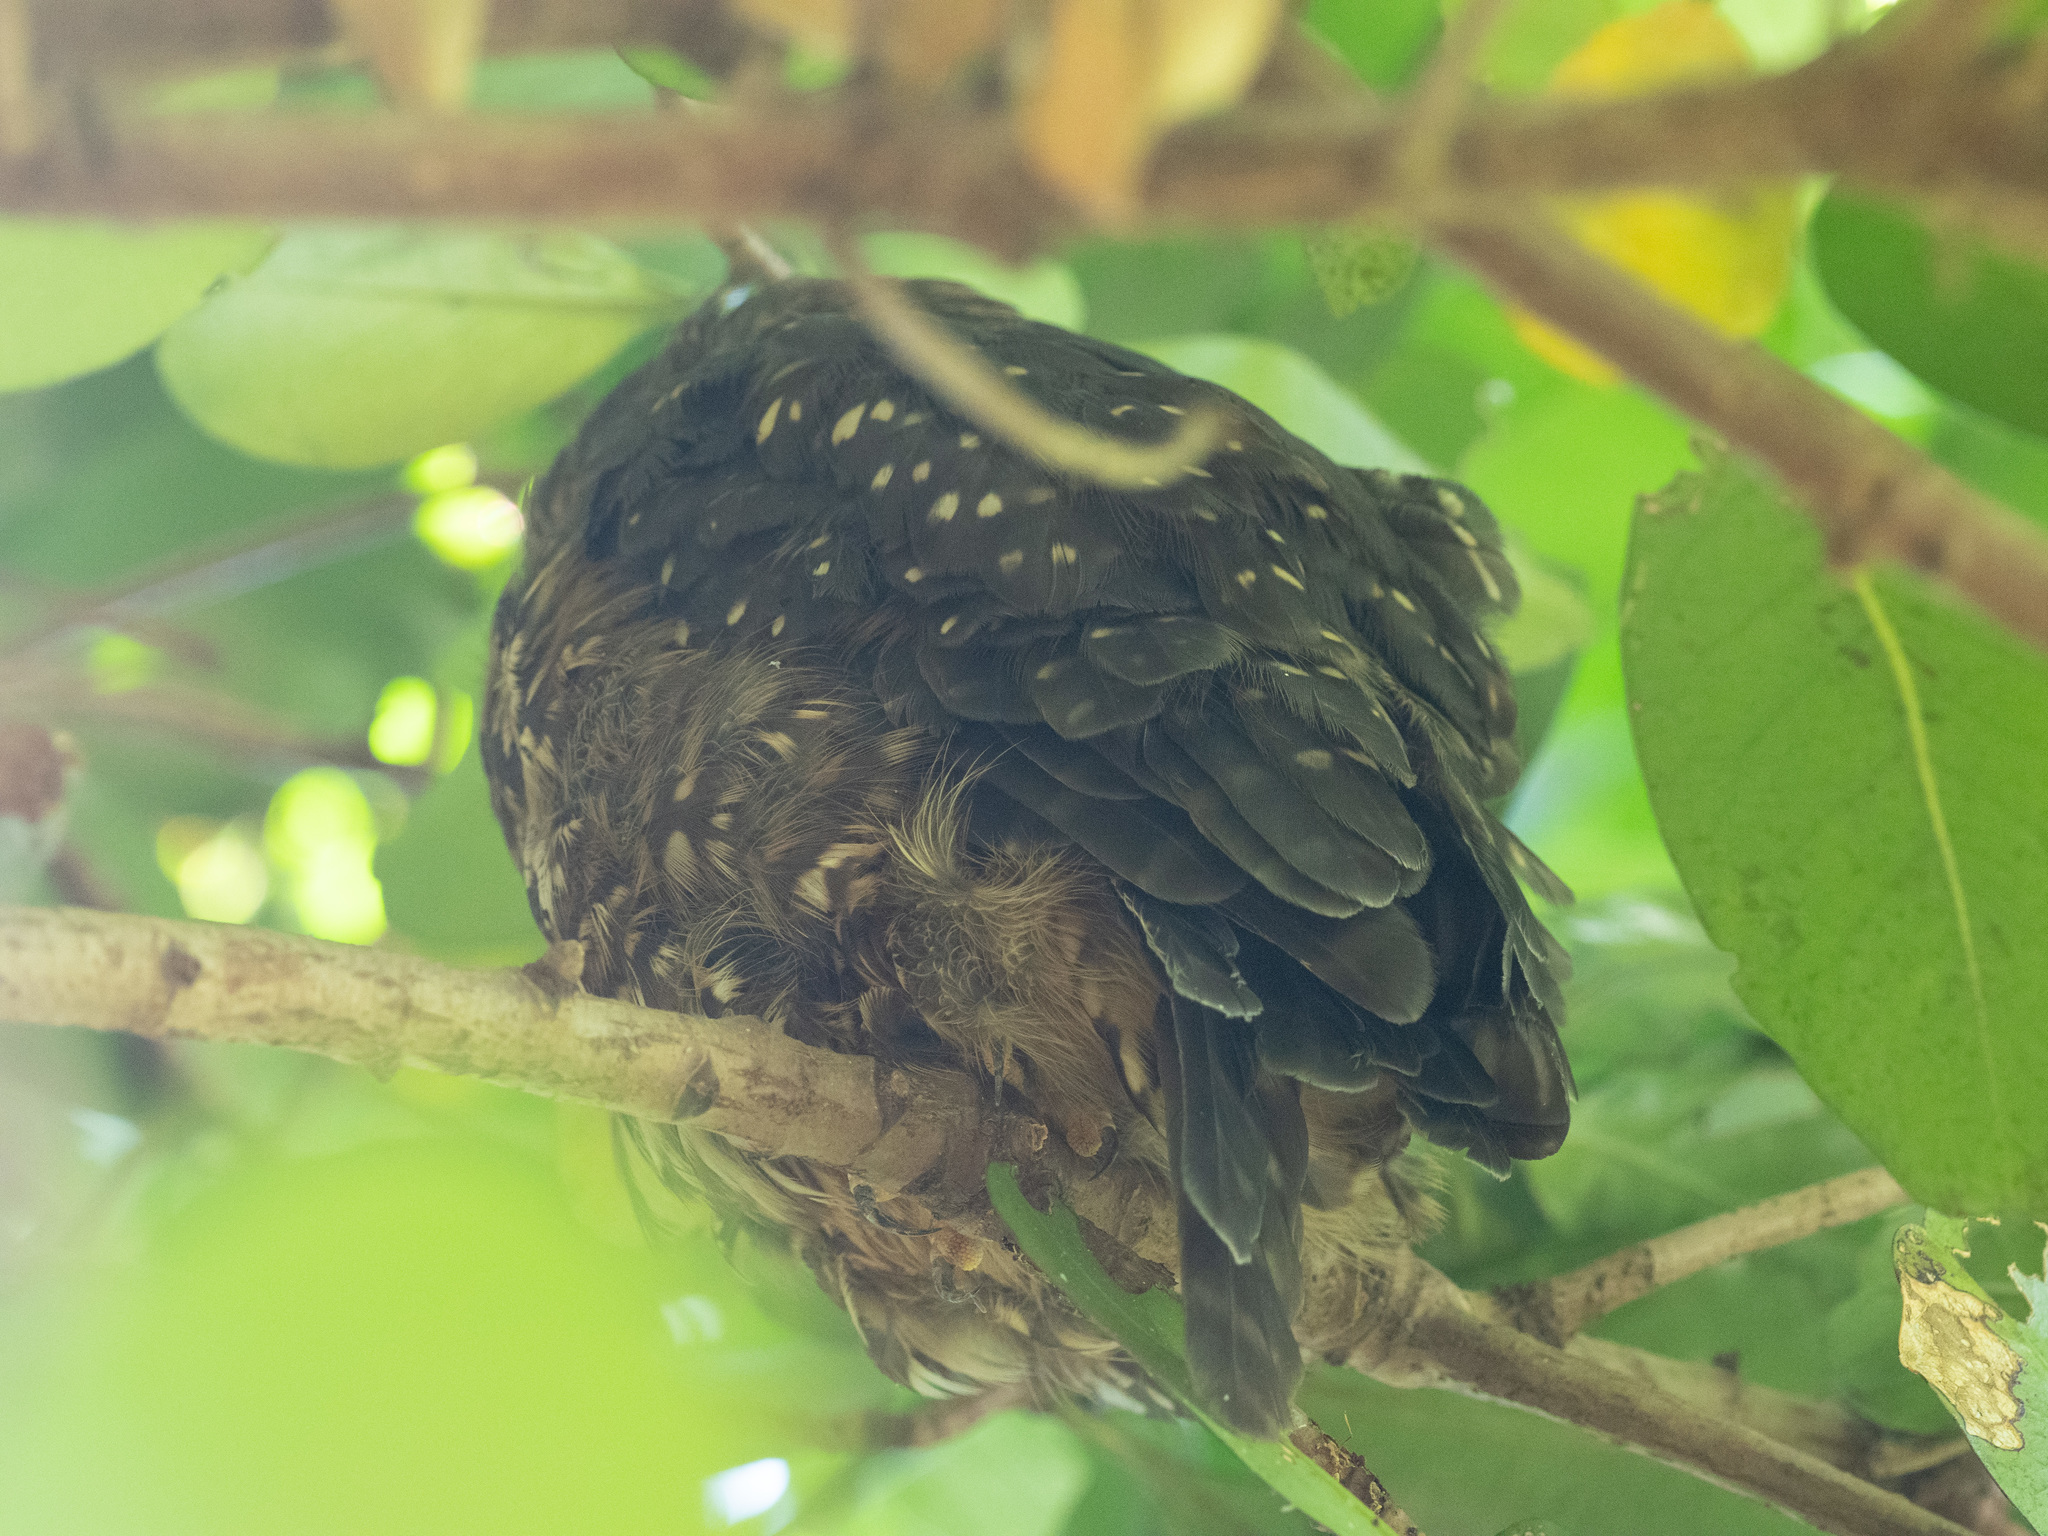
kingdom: Animalia
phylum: Chordata
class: Aves
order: Strigiformes
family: Strigidae
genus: Ninox
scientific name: Ninox novaeseelandiae
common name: Morepork
